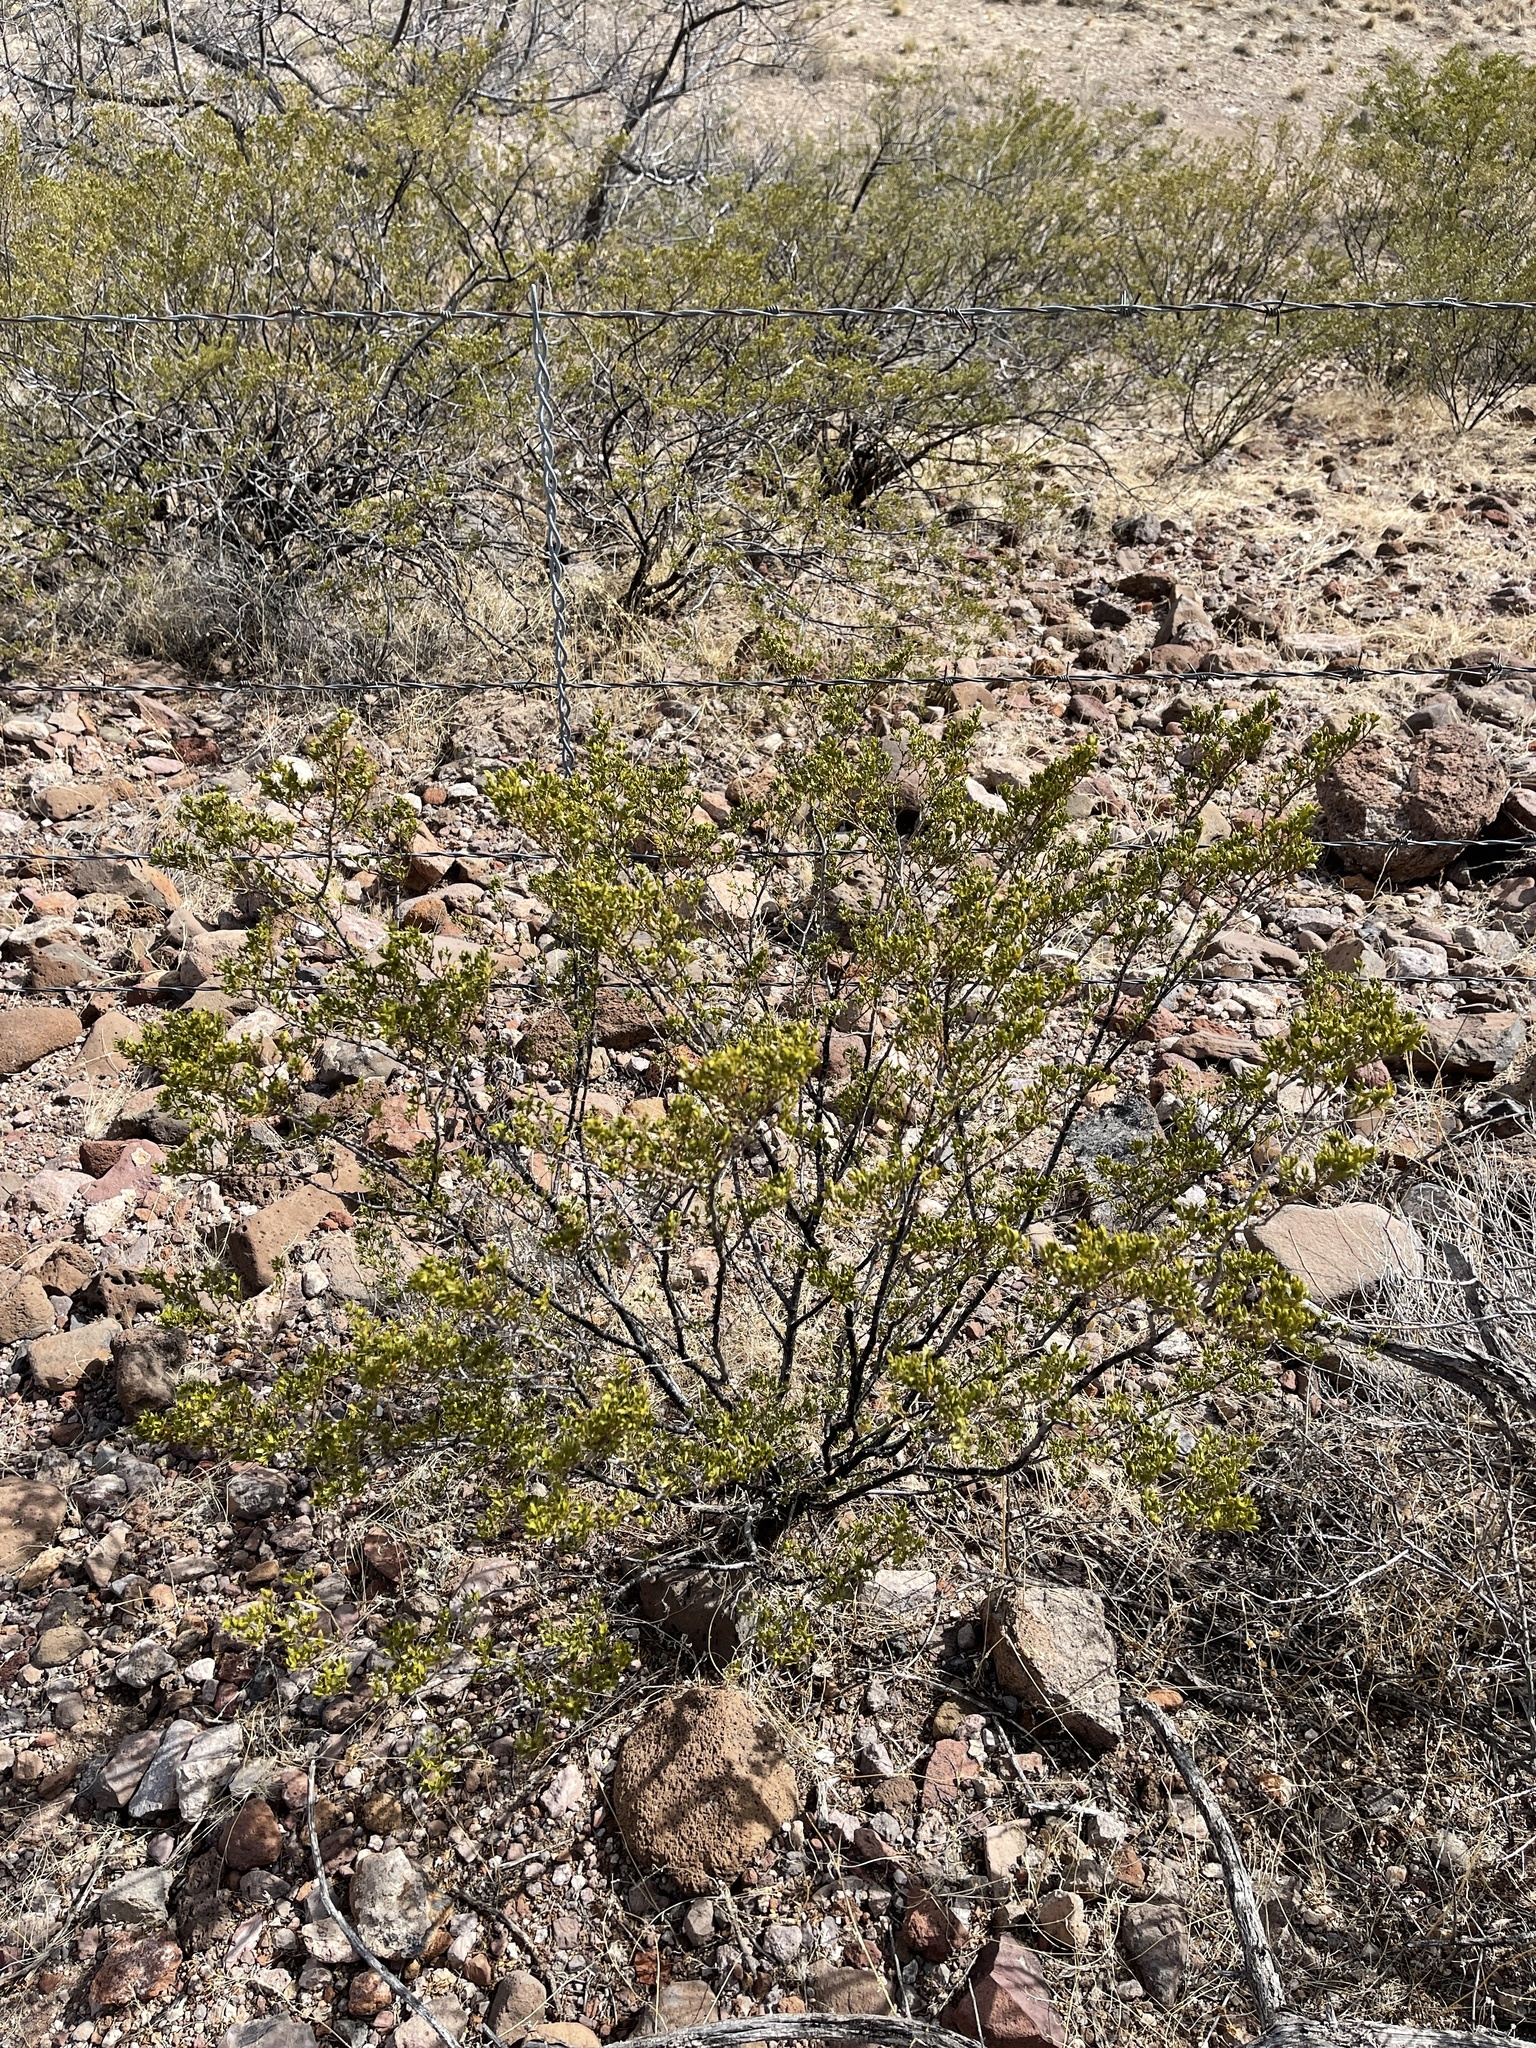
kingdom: Plantae
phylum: Tracheophyta
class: Magnoliopsida
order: Zygophyllales
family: Zygophyllaceae
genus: Larrea
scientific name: Larrea tridentata
